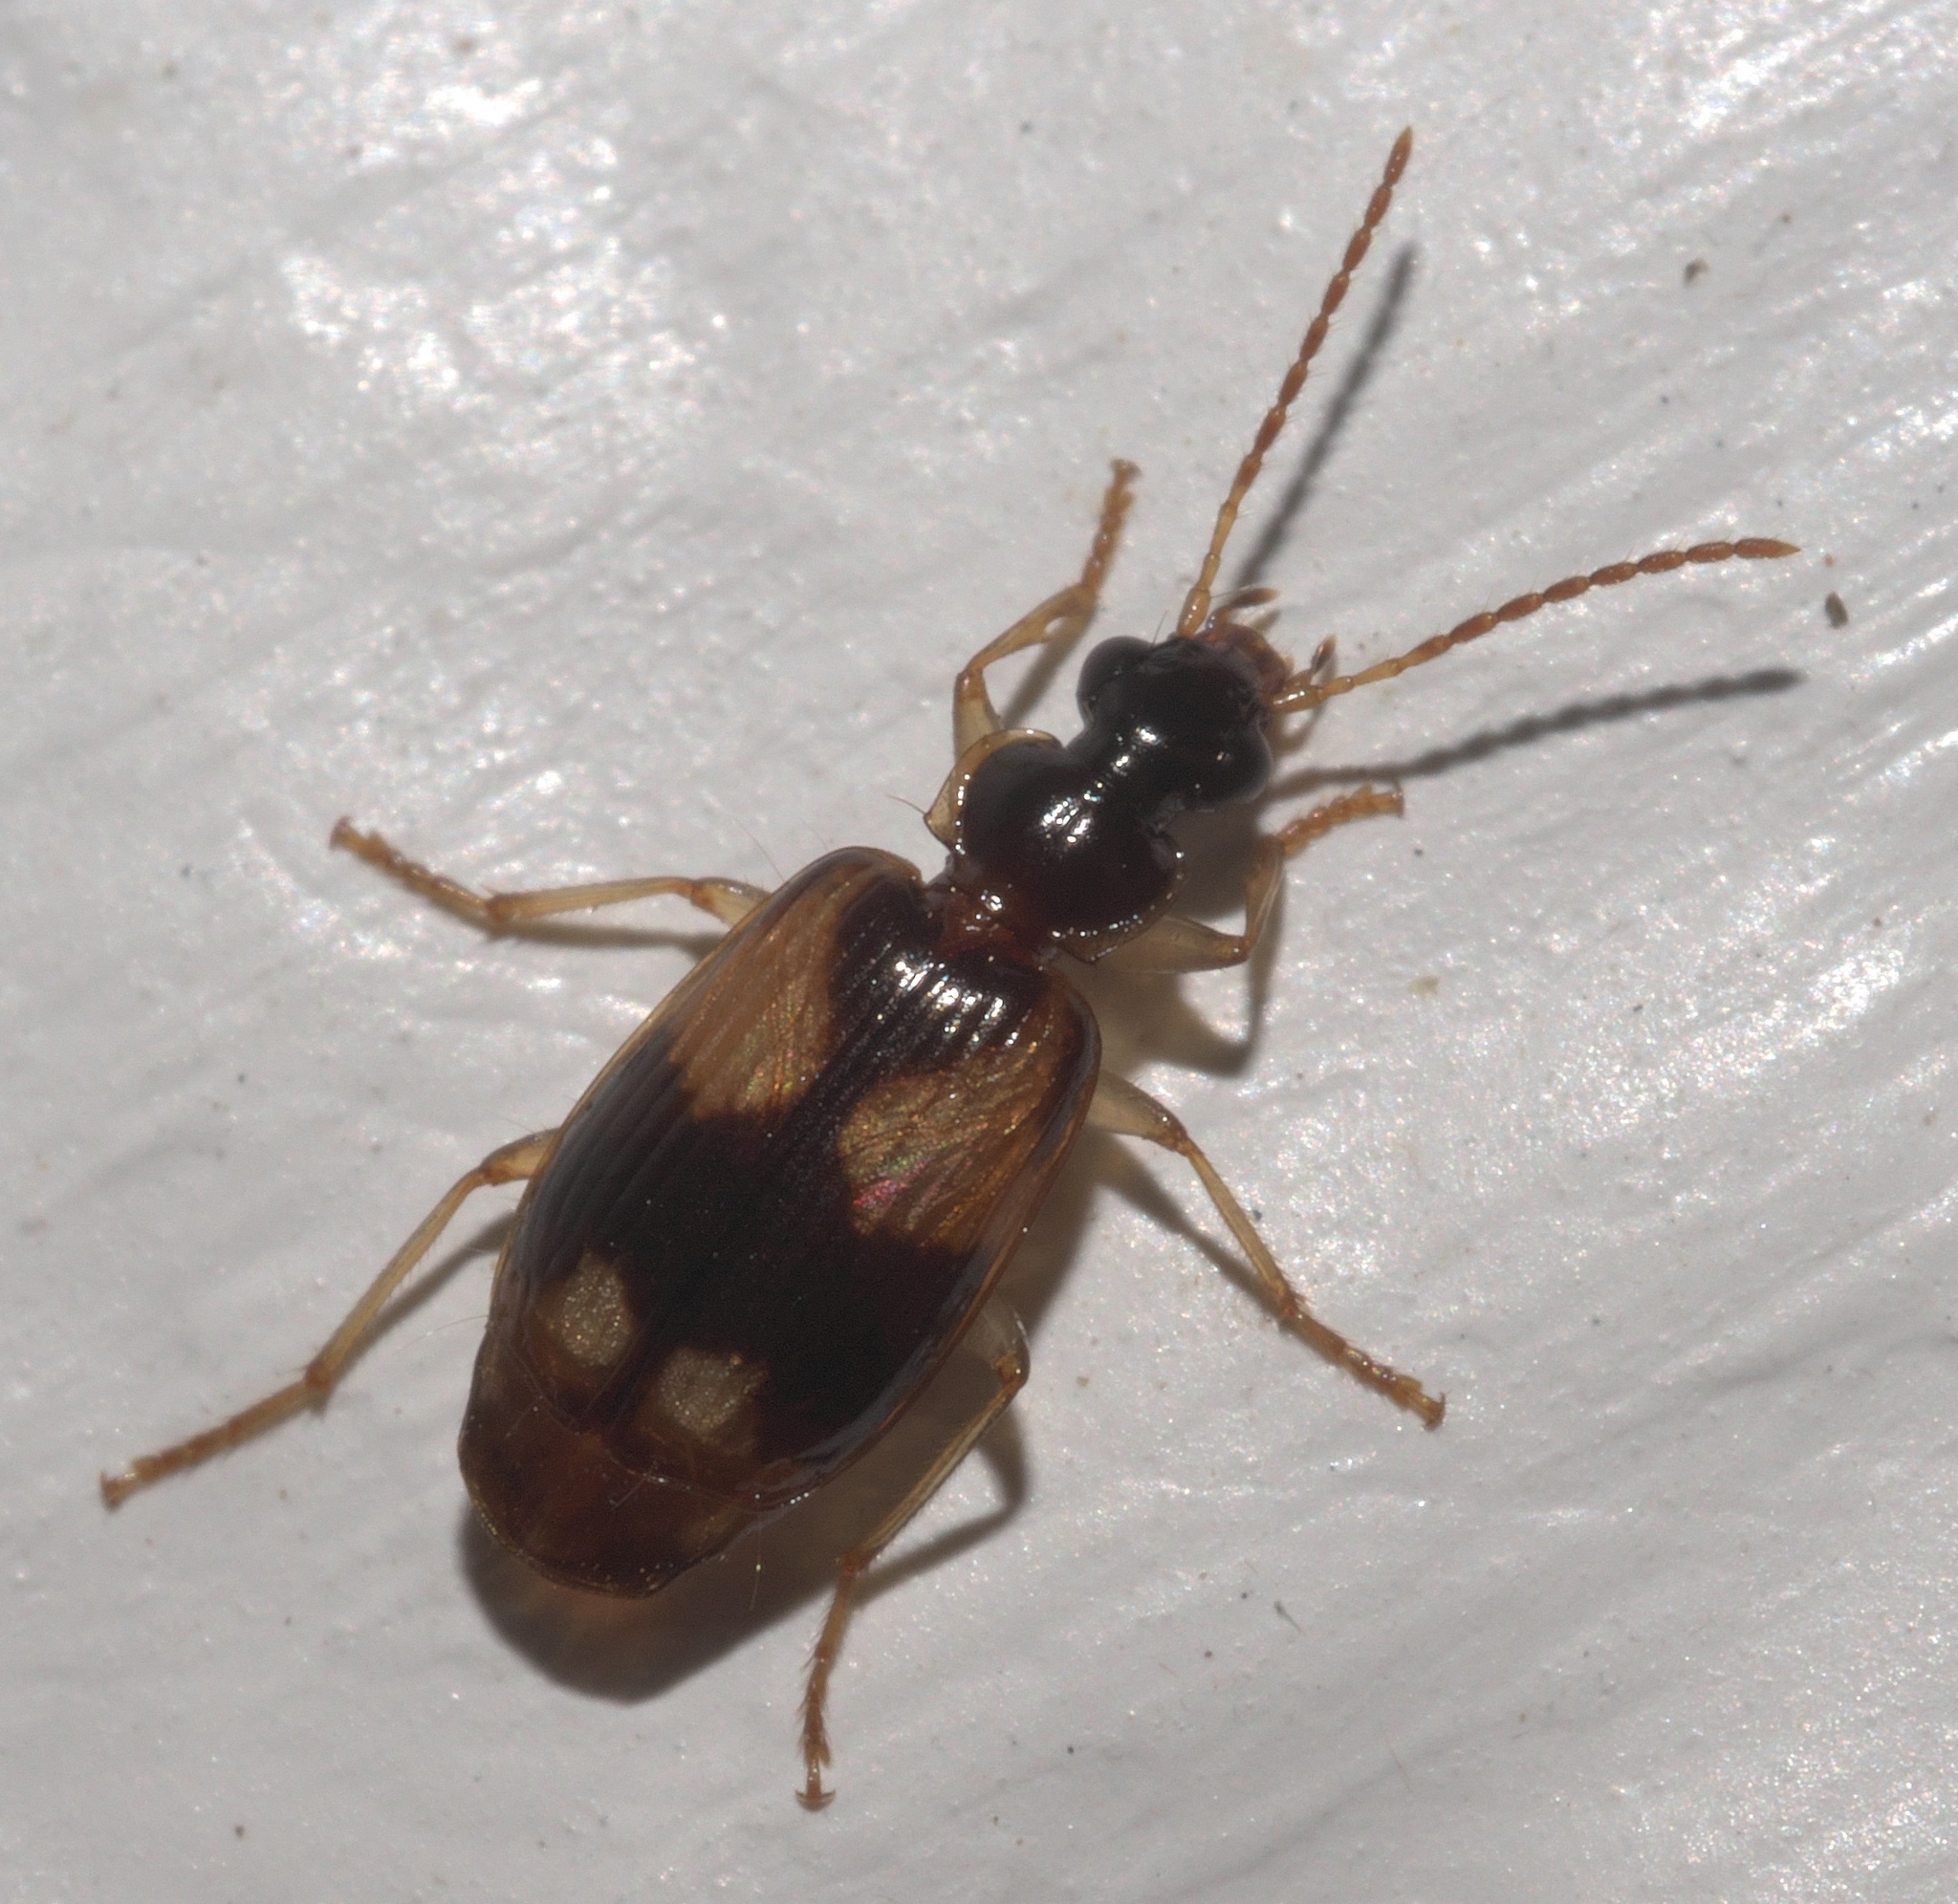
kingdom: Animalia
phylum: Arthropoda
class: Insecta
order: Coleoptera
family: Carabidae
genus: Lebia
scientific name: Lebia ornata
